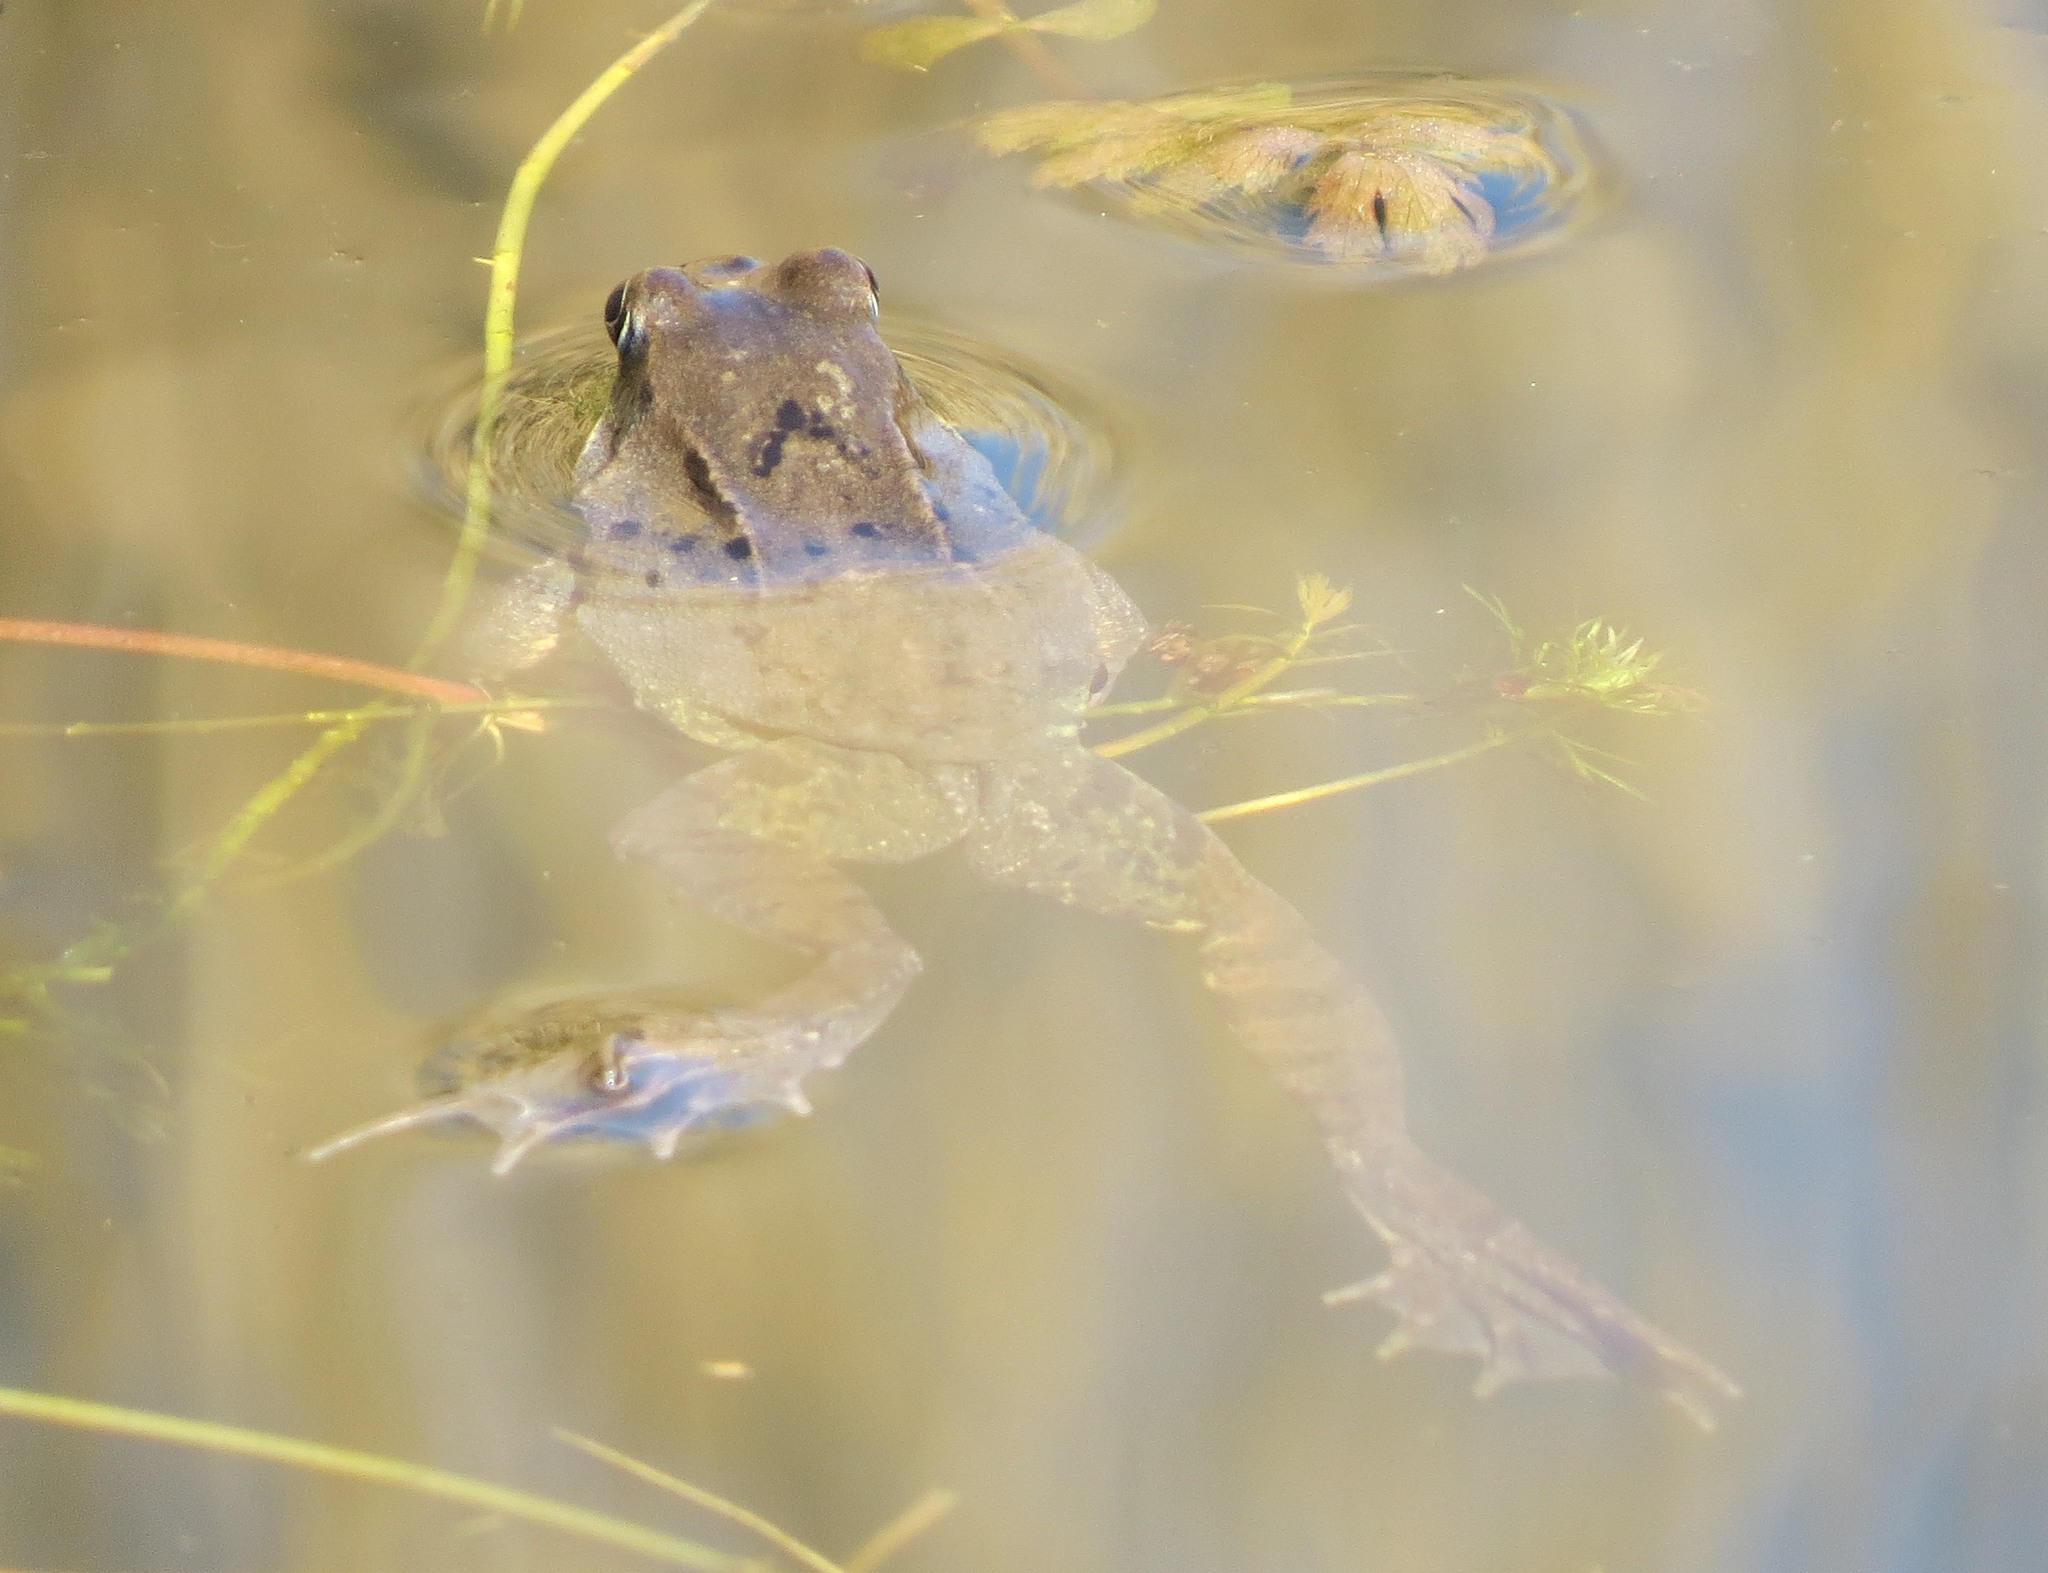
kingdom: Animalia
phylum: Chordata
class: Amphibia
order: Anura
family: Ranidae
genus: Rana
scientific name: Rana temporaria
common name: Common frog
